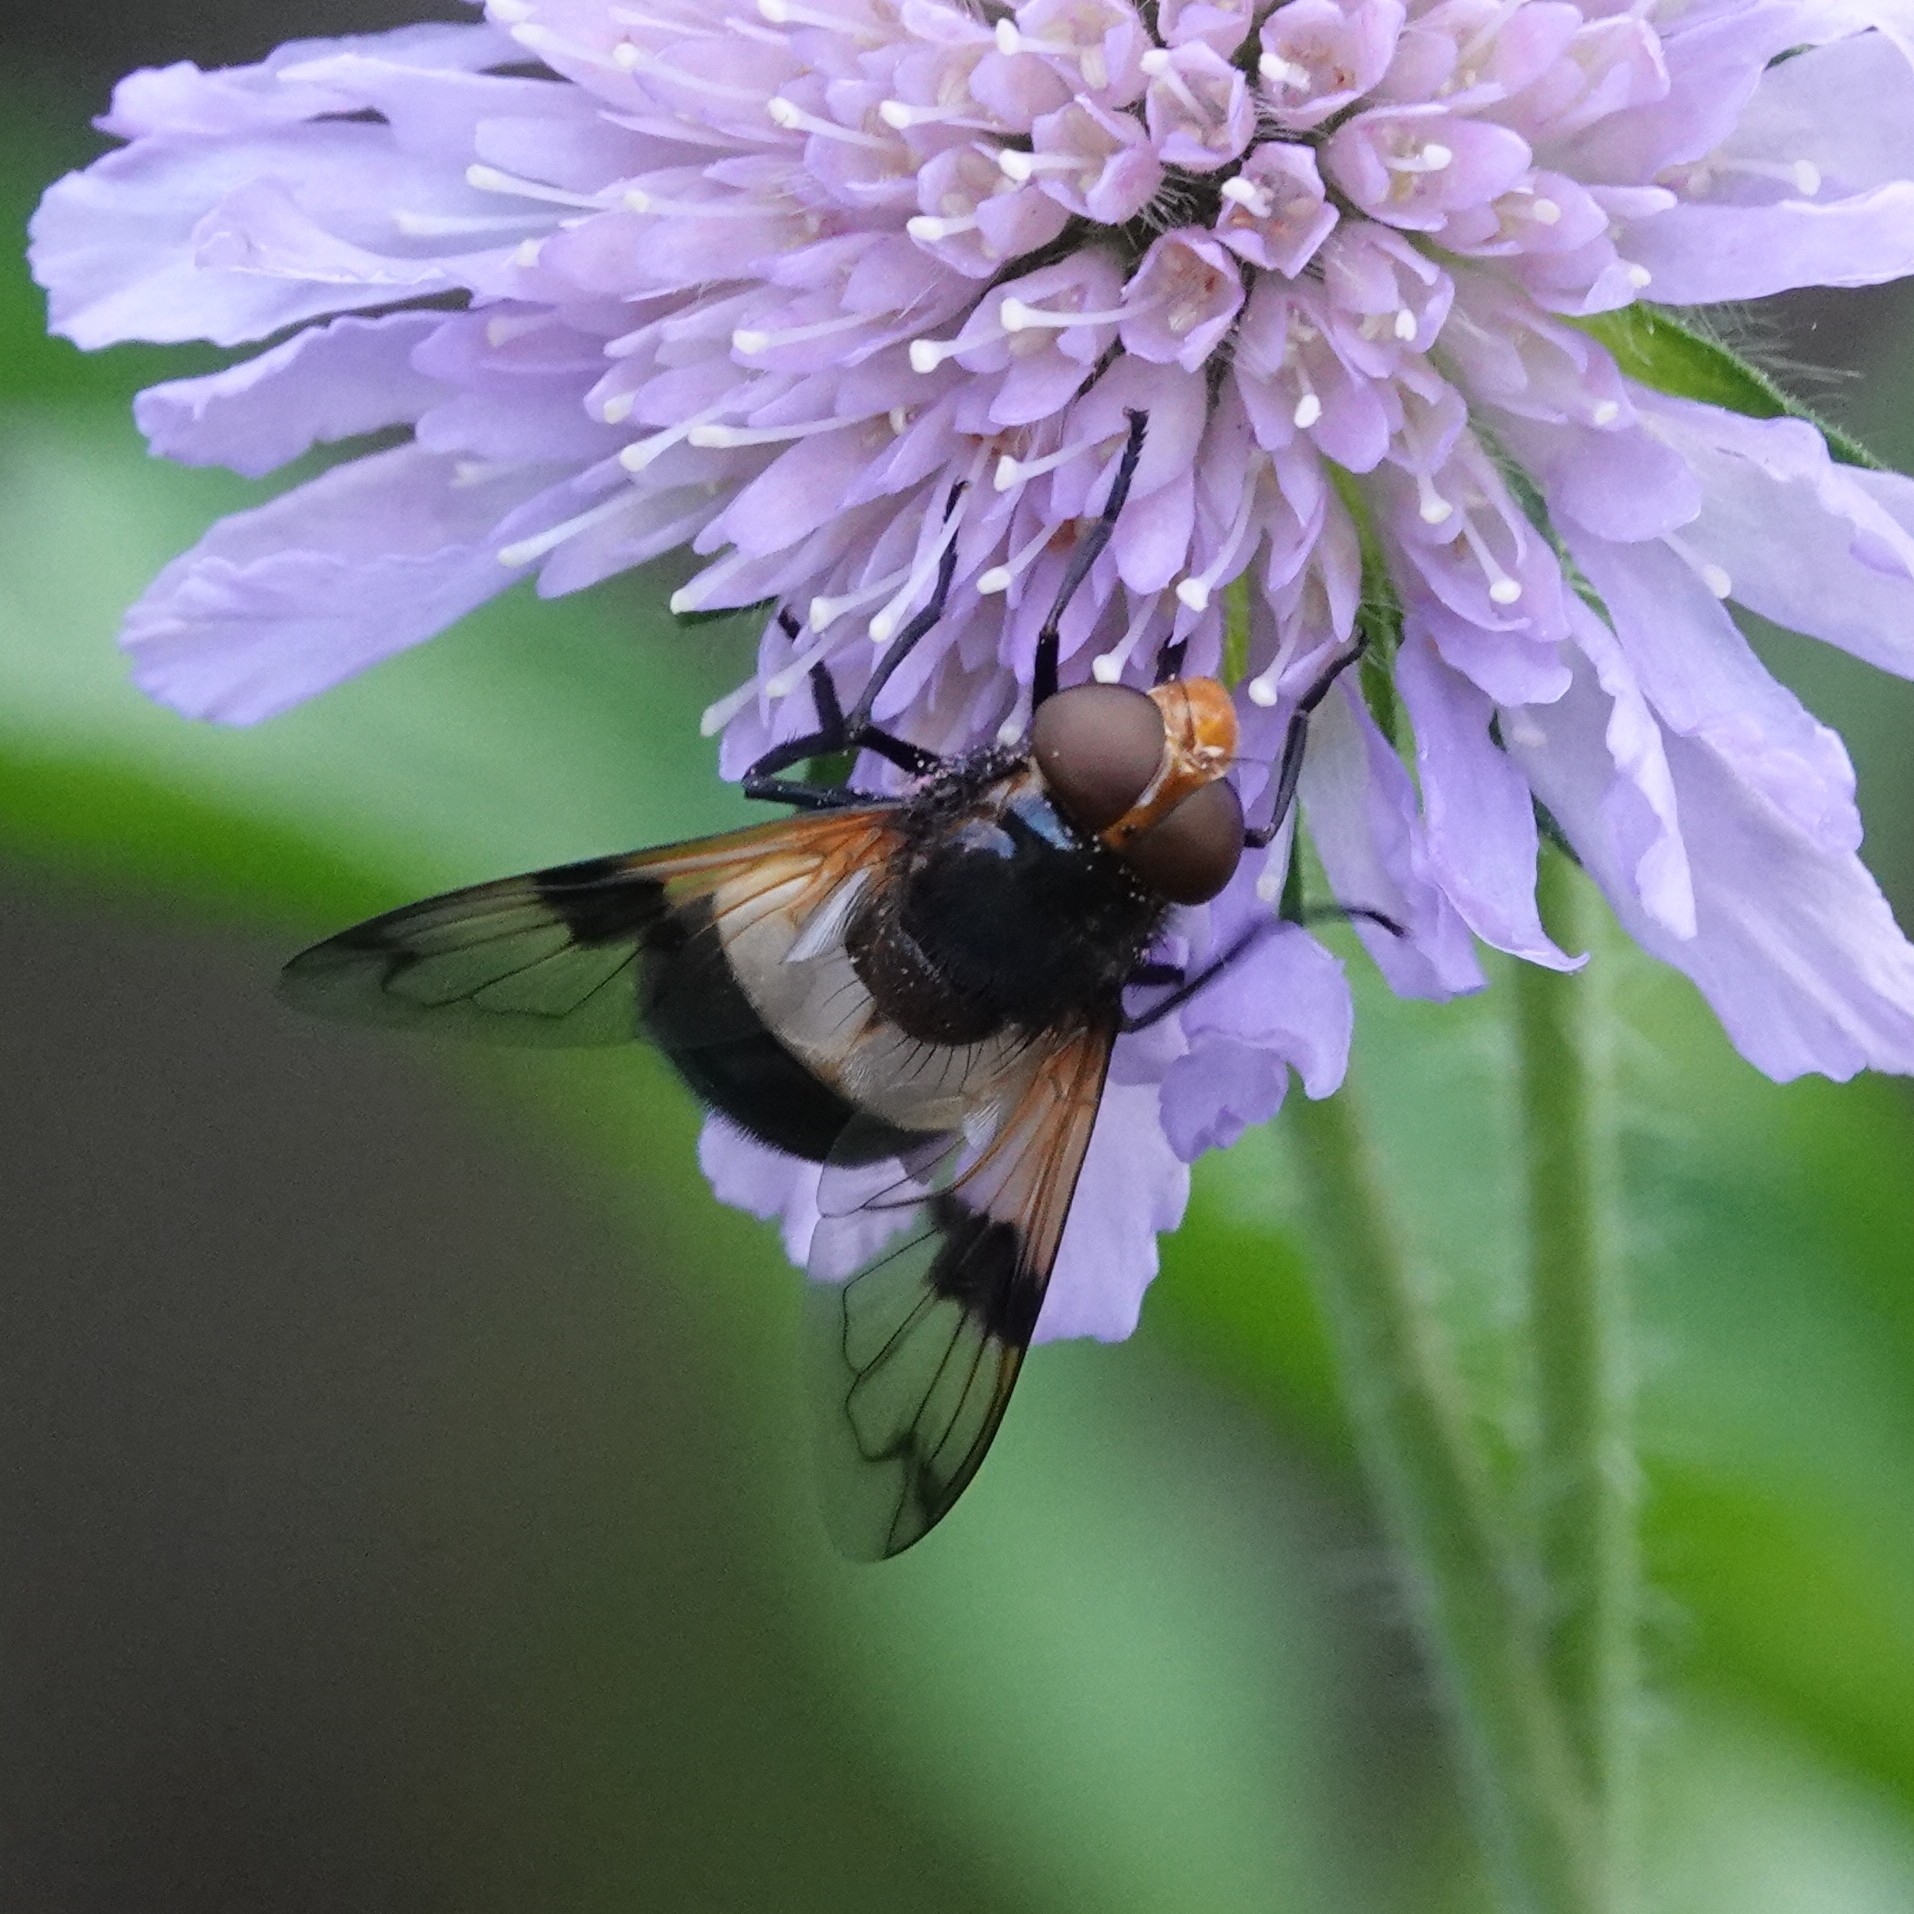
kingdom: Animalia
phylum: Arthropoda
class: Insecta
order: Diptera
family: Syrphidae
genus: Volucella
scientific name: Volucella pellucens
